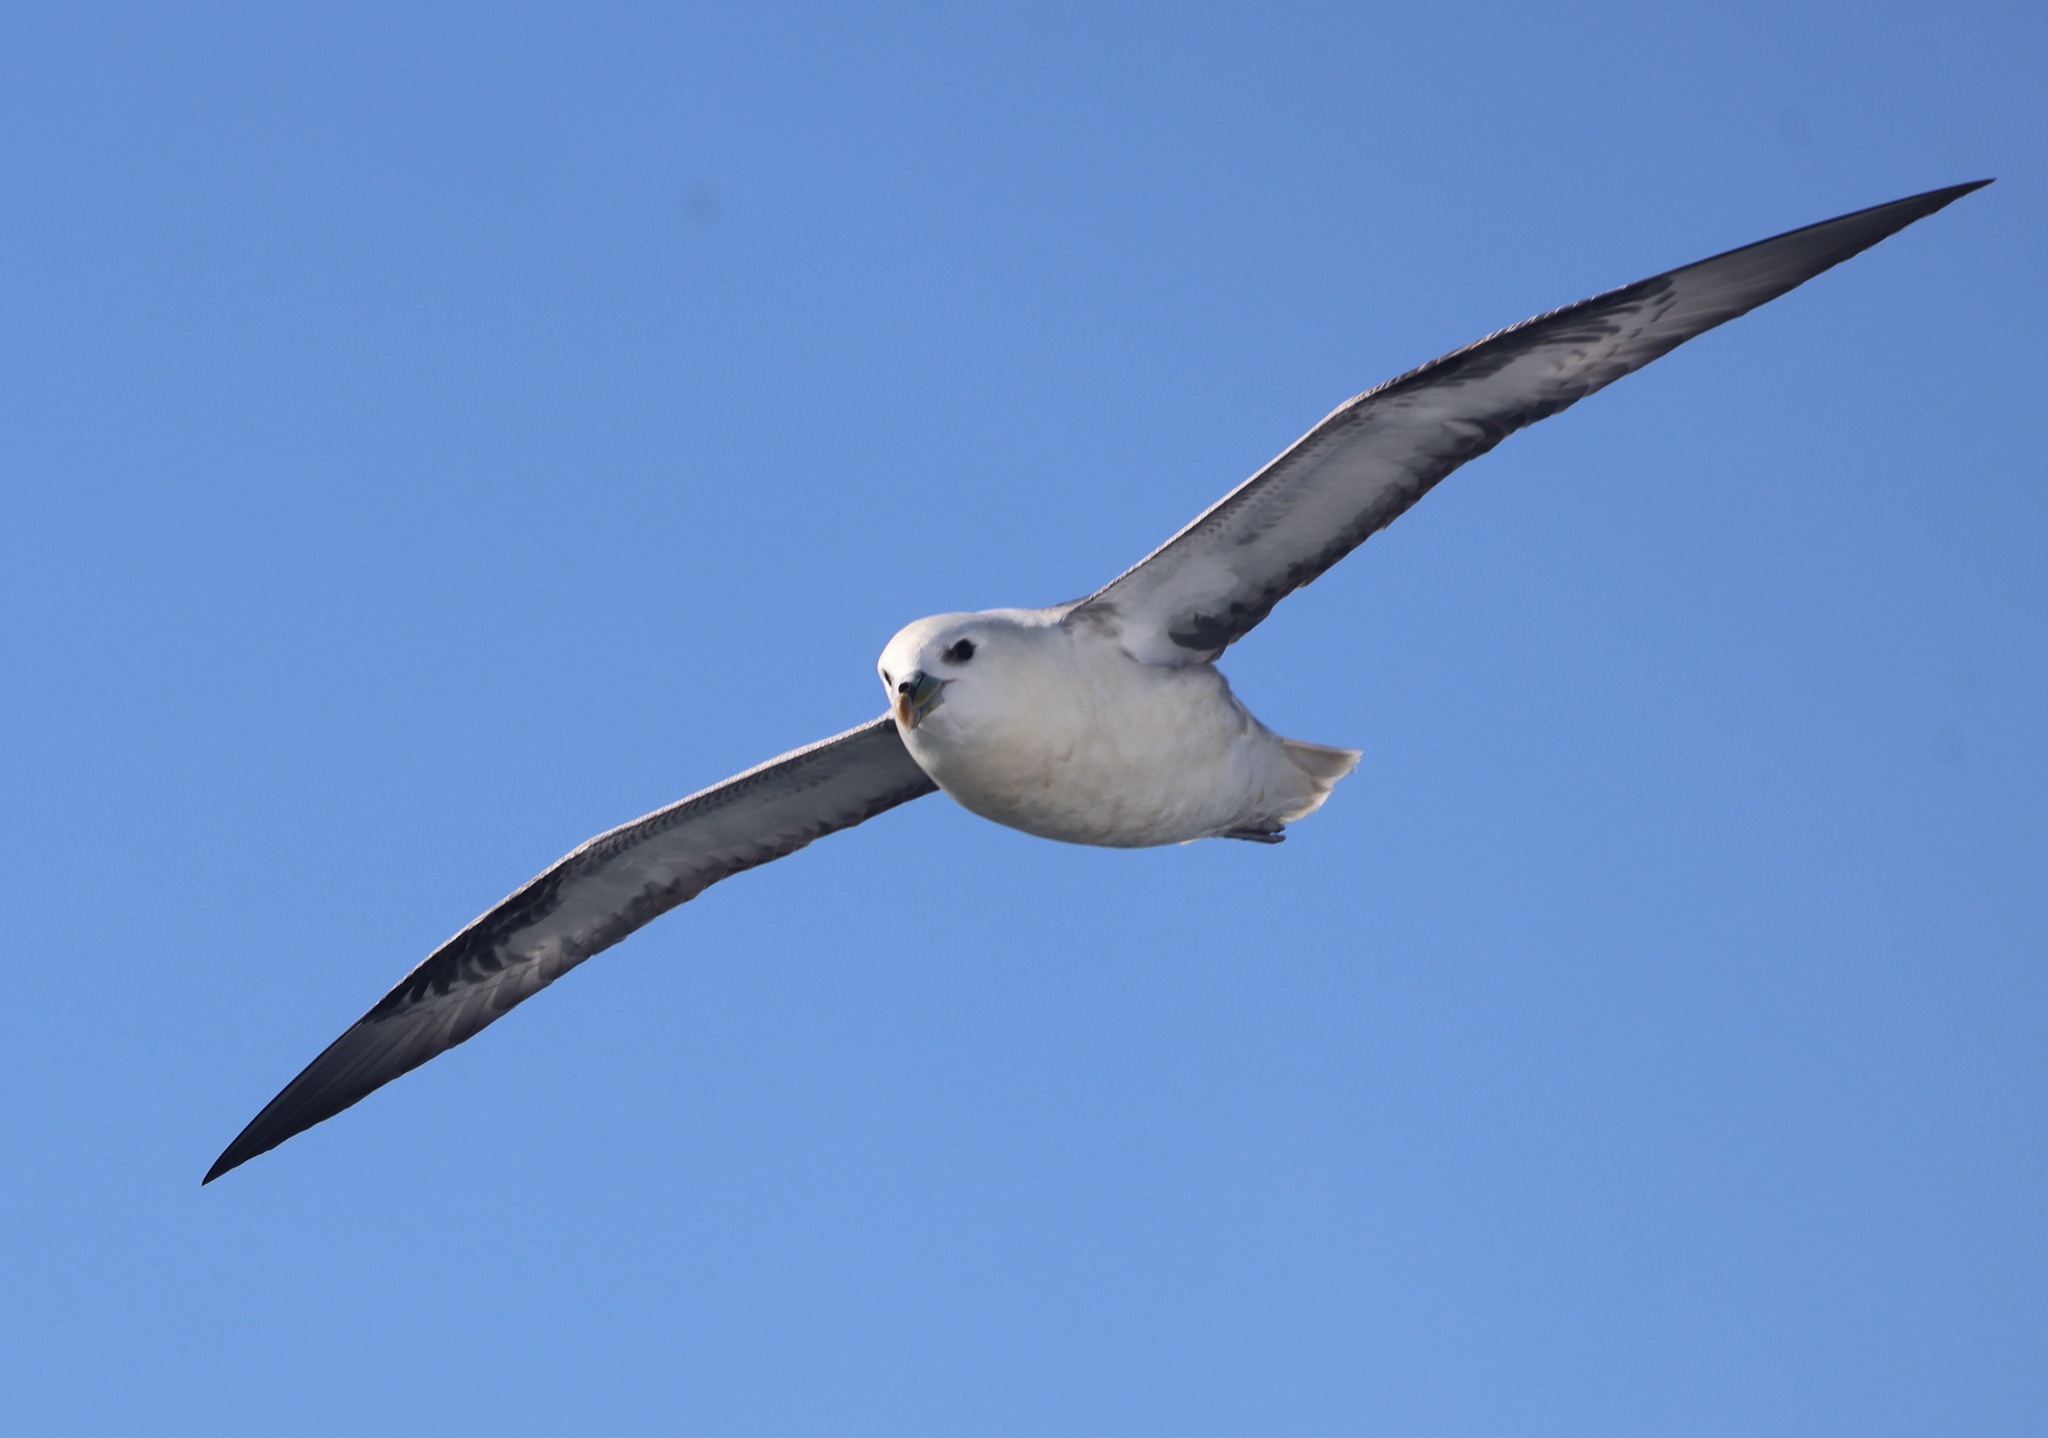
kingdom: Animalia
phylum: Chordata
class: Aves
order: Procellariiformes
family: Procellariidae
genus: Fulmarus
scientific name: Fulmarus glacialis
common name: Northern fulmar
